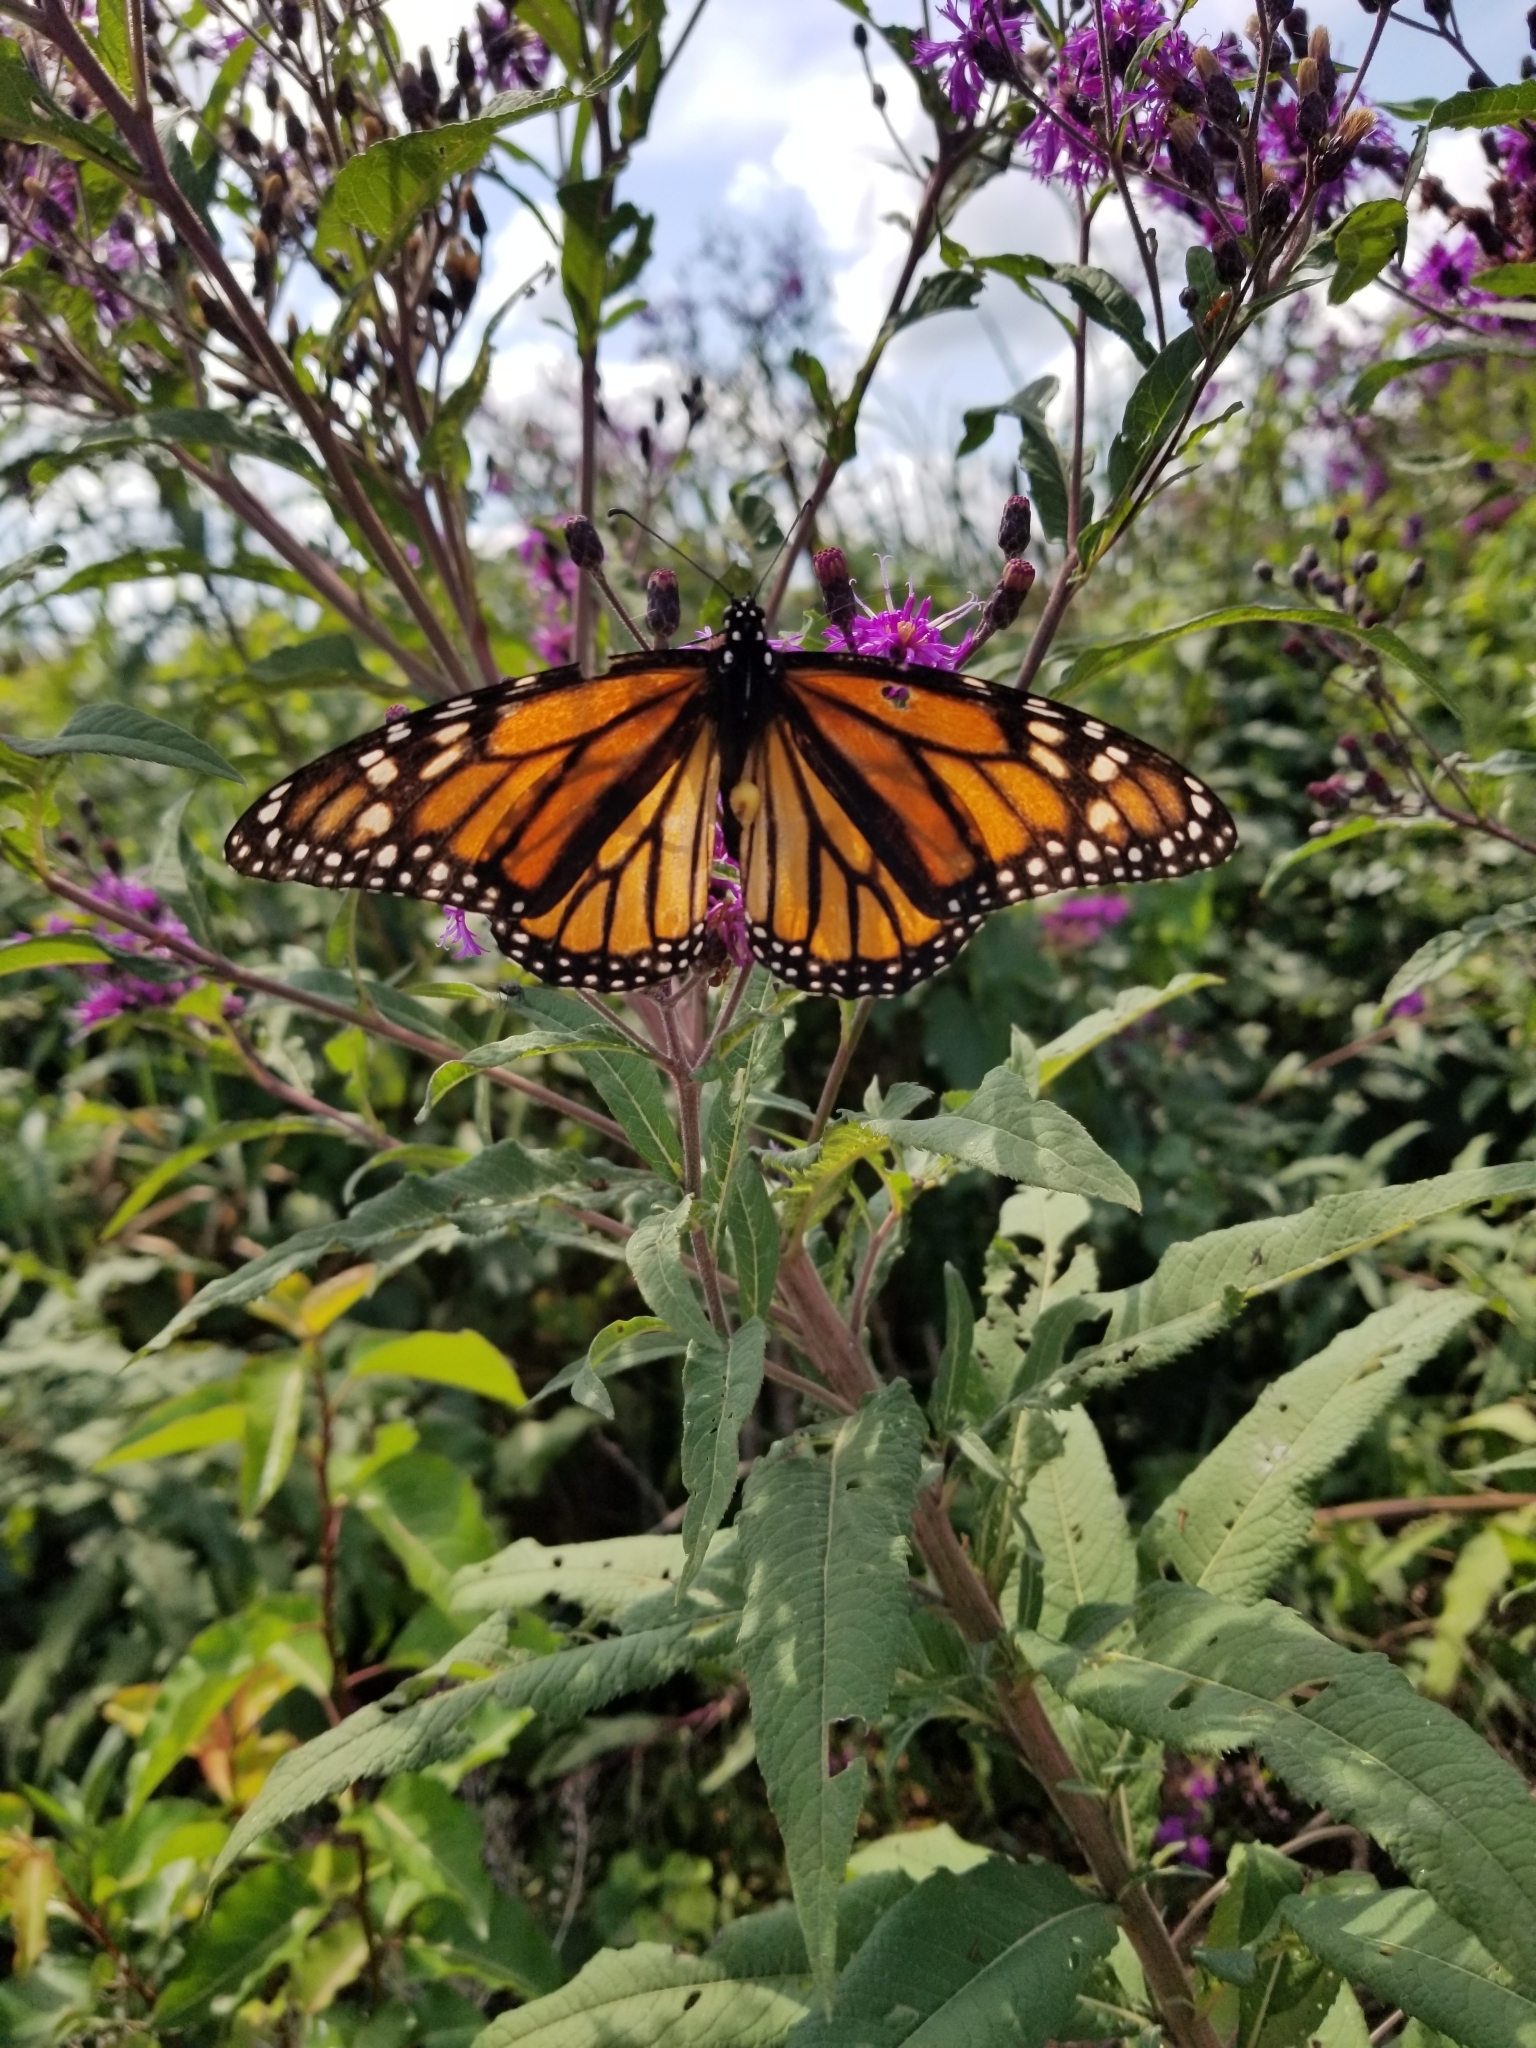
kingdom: Animalia
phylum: Arthropoda
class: Insecta
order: Lepidoptera
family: Nymphalidae
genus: Danaus
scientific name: Danaus plexippus
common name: Monarch
